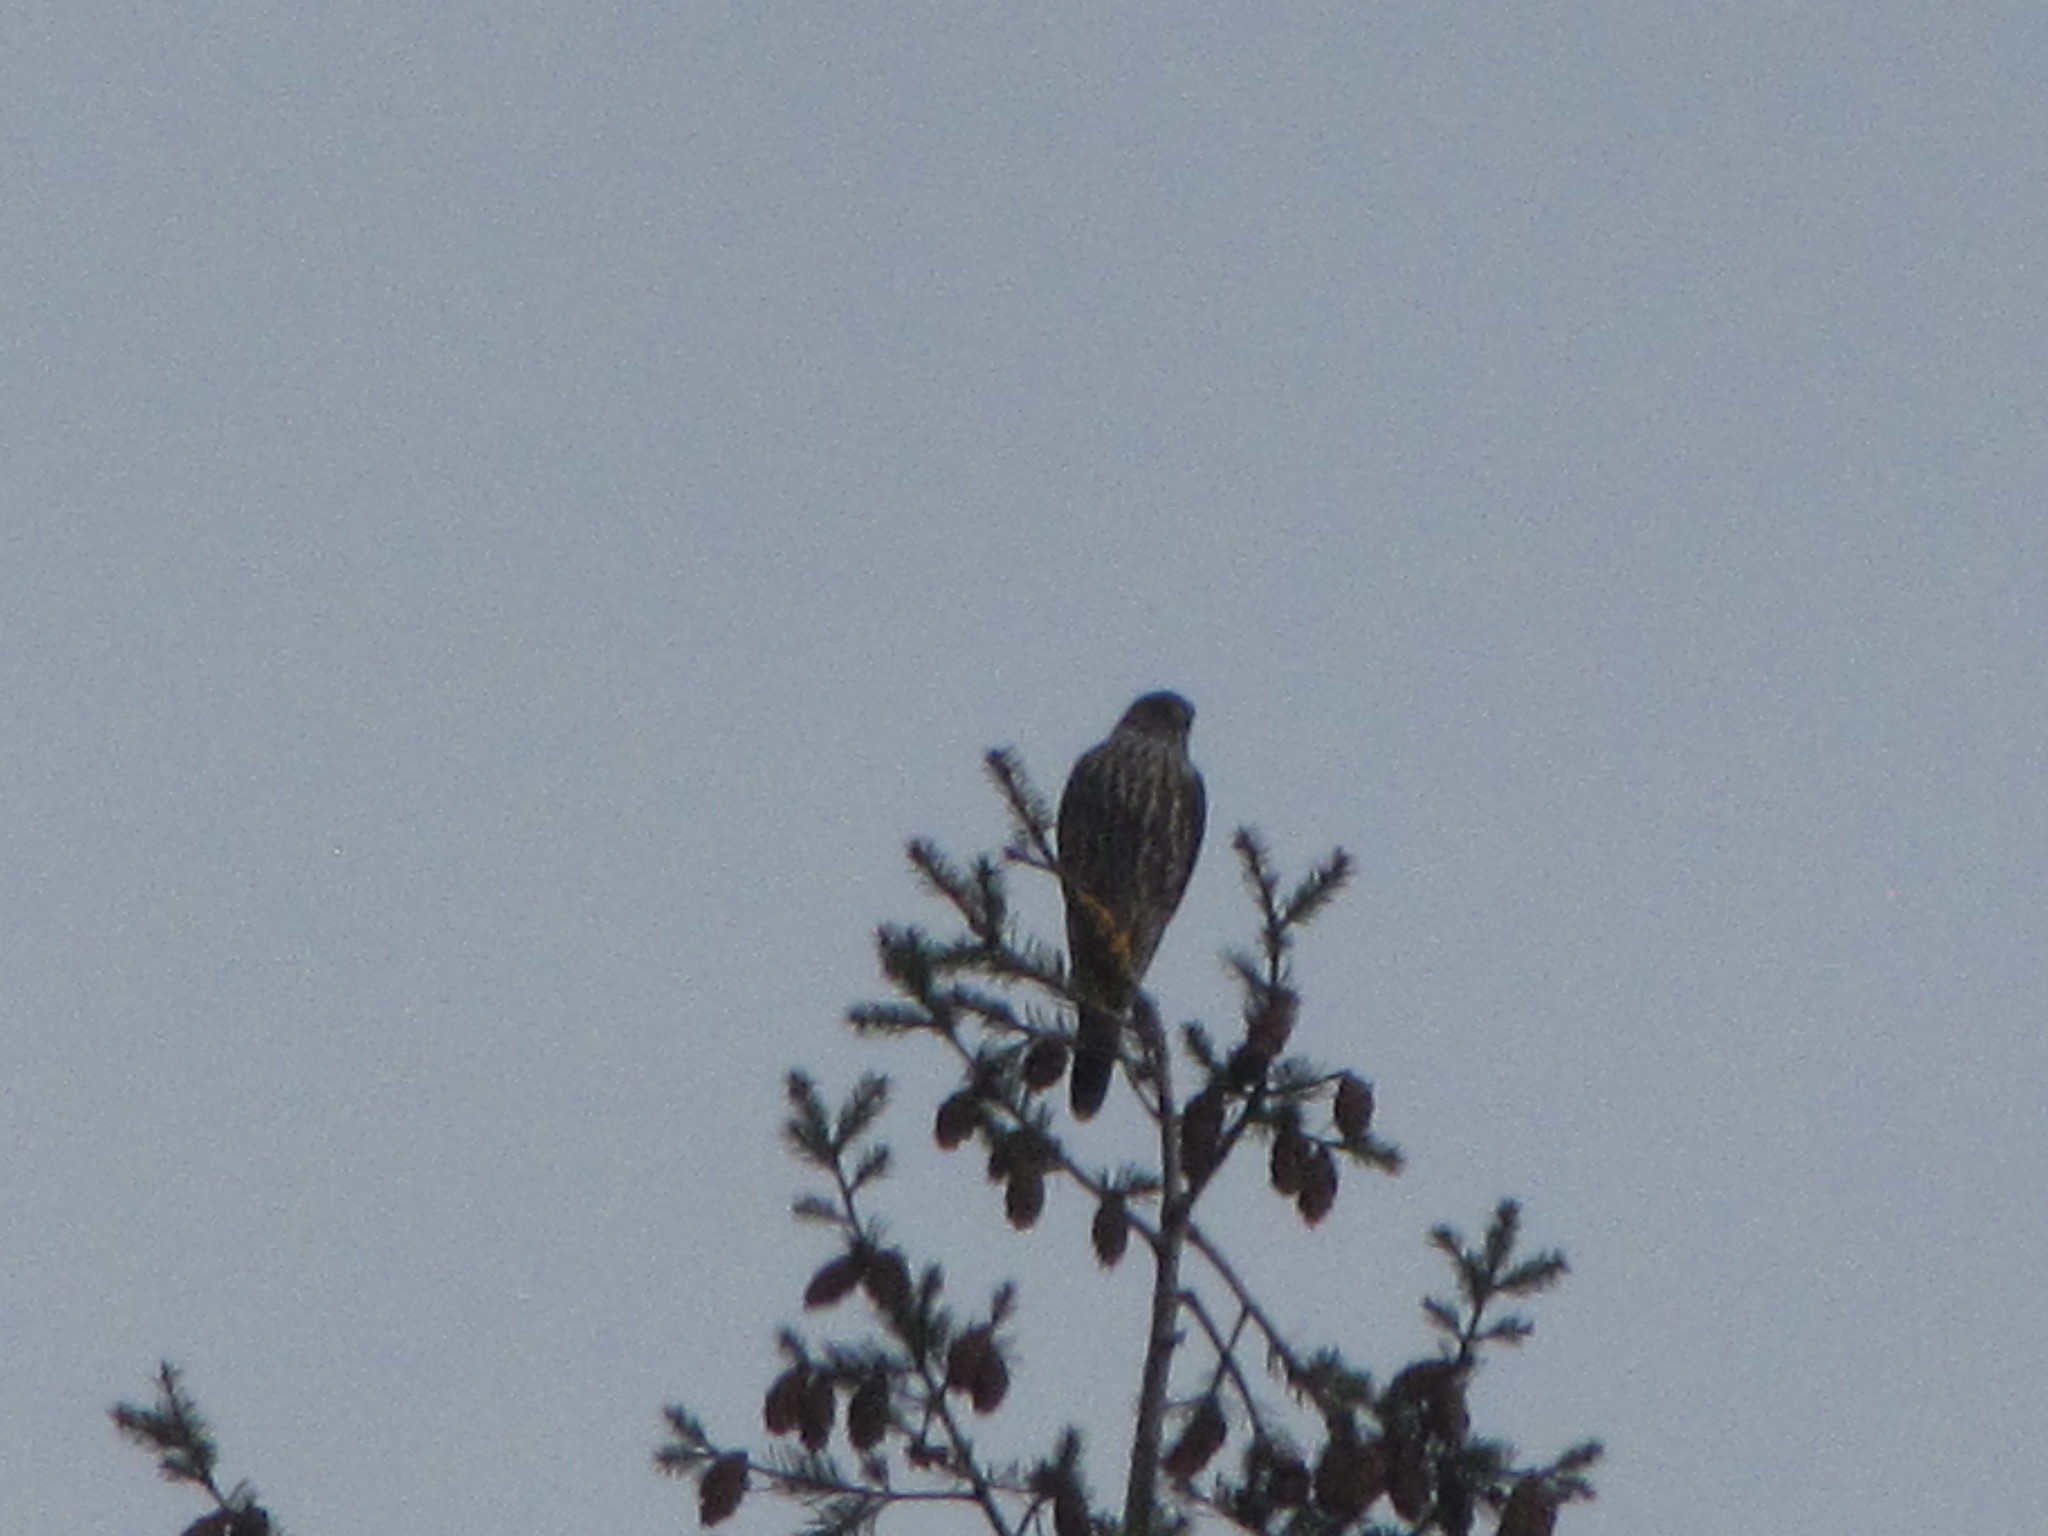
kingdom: Animalia
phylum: Chordata
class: Aves
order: Falconiformes
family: Falconidae
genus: Falco
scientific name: Falco columbarius
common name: Merlin
